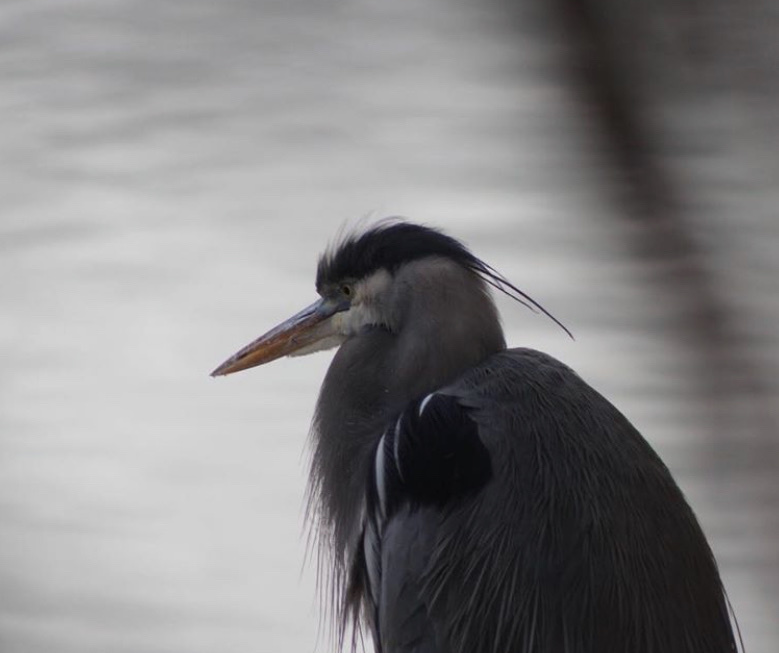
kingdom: Animalia
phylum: Chordata
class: Aves
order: Pelecaniformes
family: Ardeidae
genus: Ardea
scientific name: Ardea herodias
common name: Great blue heron
